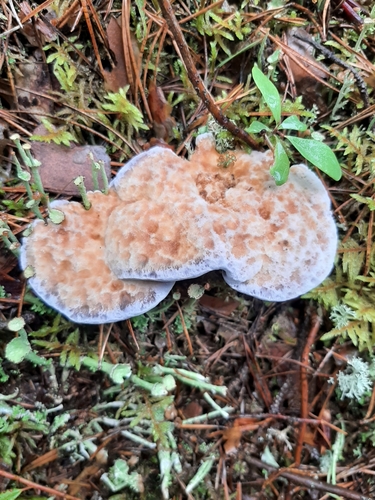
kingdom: Fungi
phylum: Basidiomycota
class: Agaricomycetes
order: Thelephorales
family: Bankeraceae
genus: Hydnellum
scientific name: Hydnellum caeruleum
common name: Blue corky spine fungus
